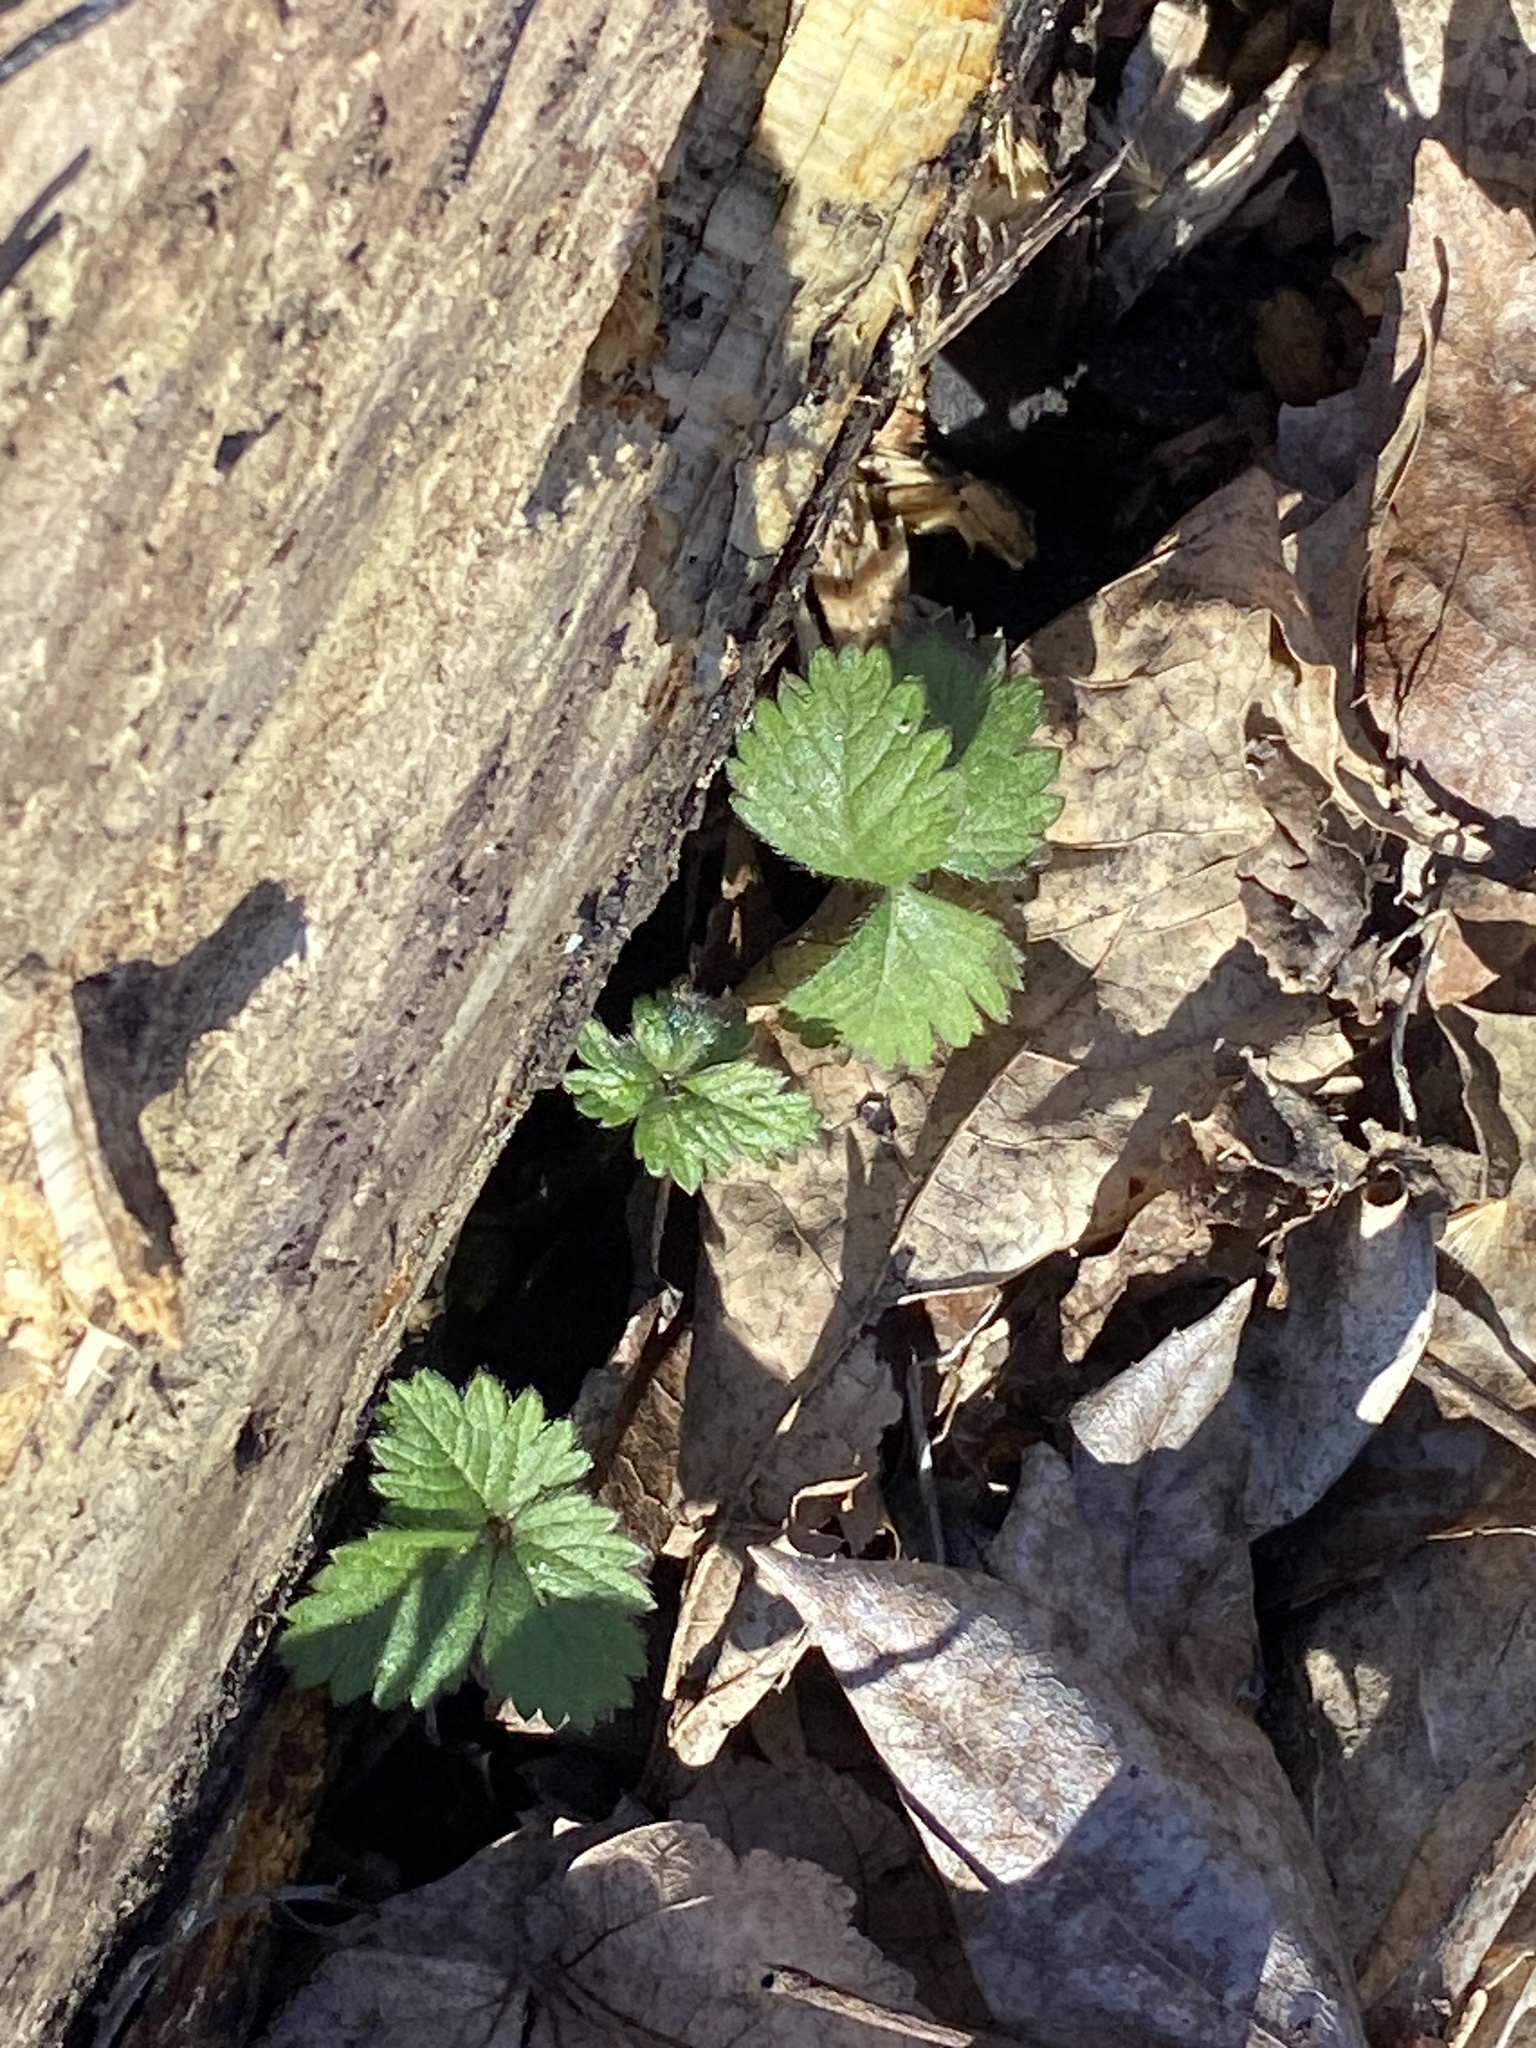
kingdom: Plantae
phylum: Tracheophyta
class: Magnoliopsida
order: Rosales
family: Rosaceae
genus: Potentilla
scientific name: Potentilla indica
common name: Yellow-flowered strawberry
